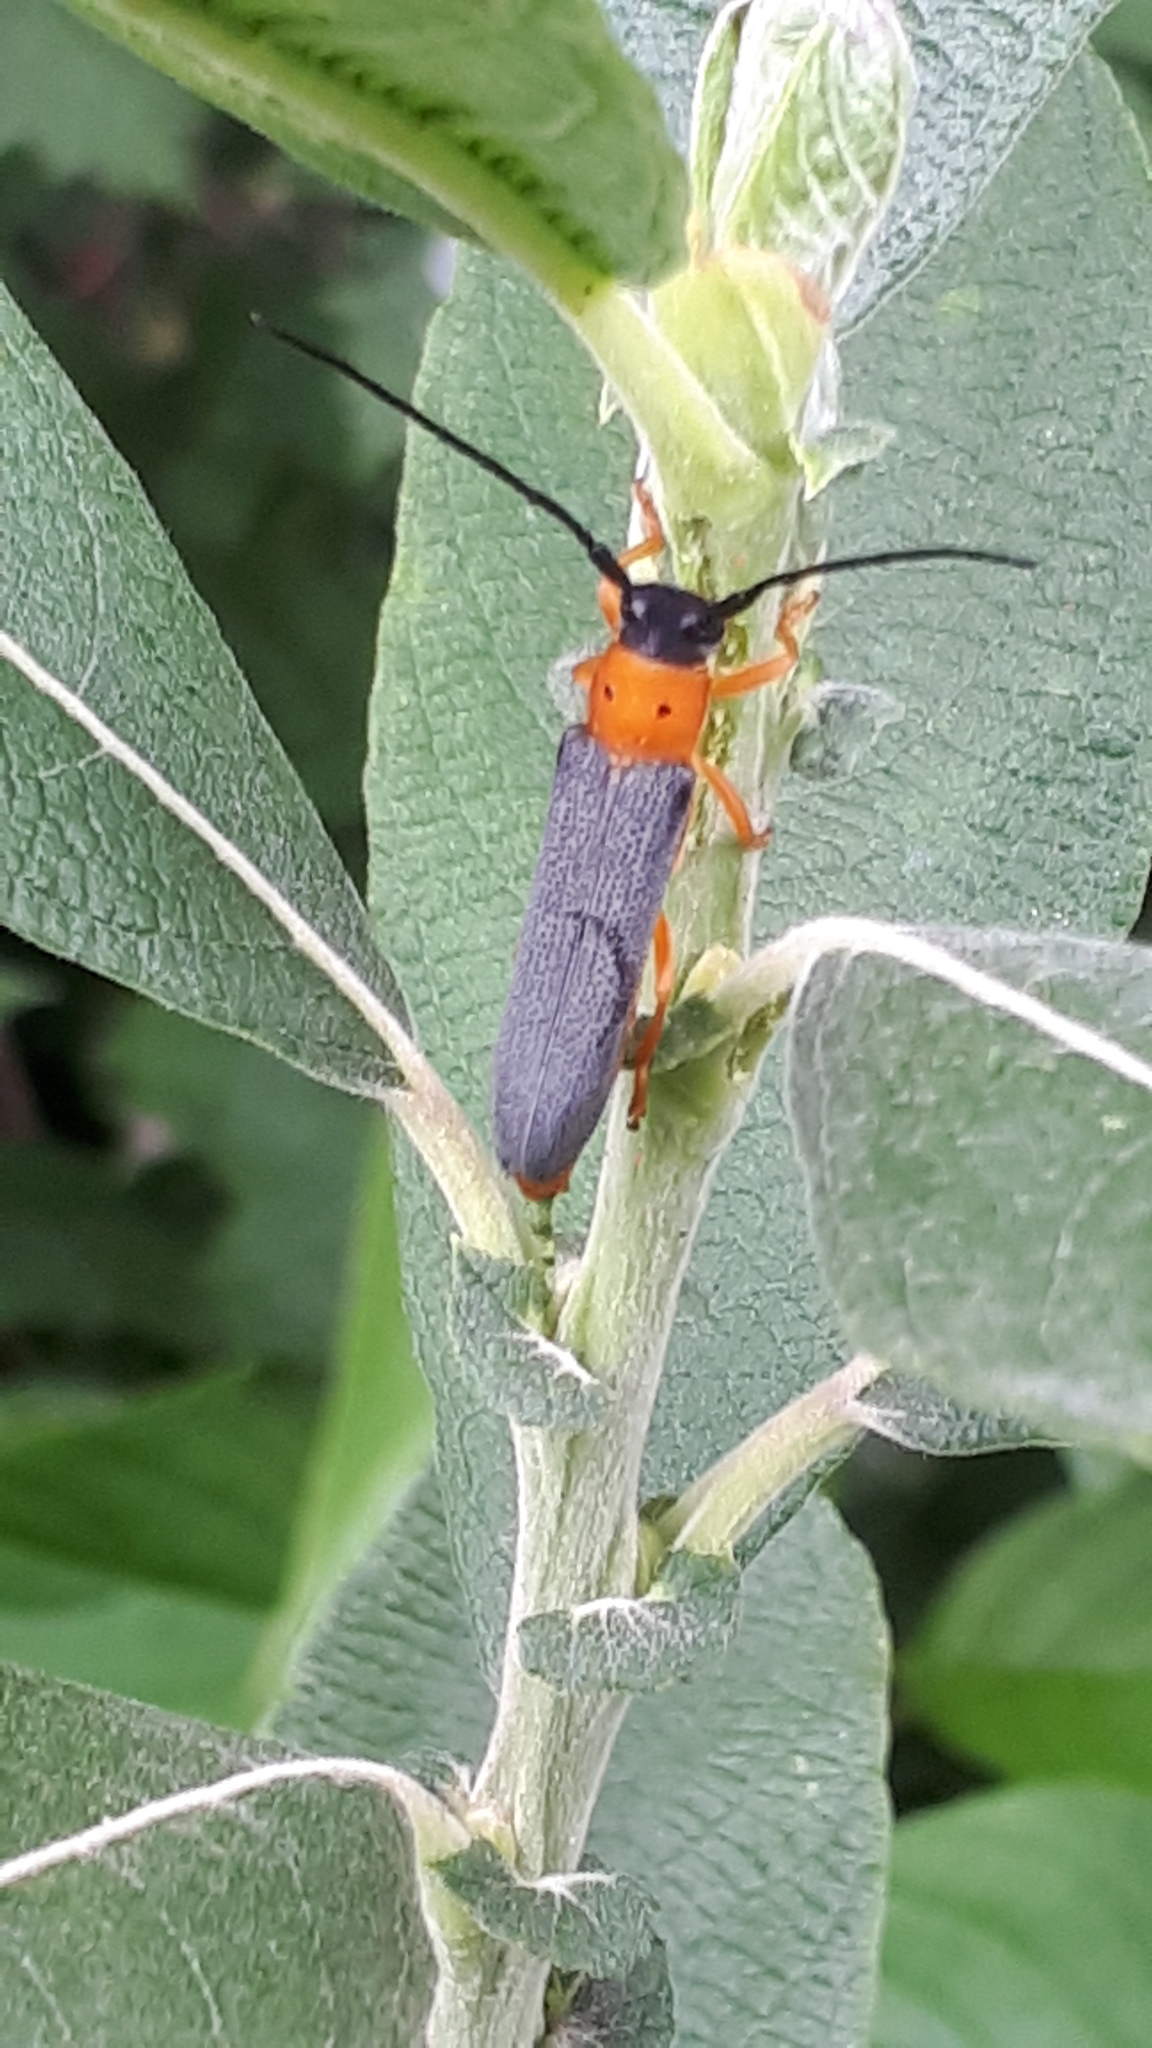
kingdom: Animalia
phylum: Arthropoda
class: Insecta
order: Coleoptera
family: Cerambycidae
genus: Oberea
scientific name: Oberea oculata
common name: Eyed longhorn beetle
